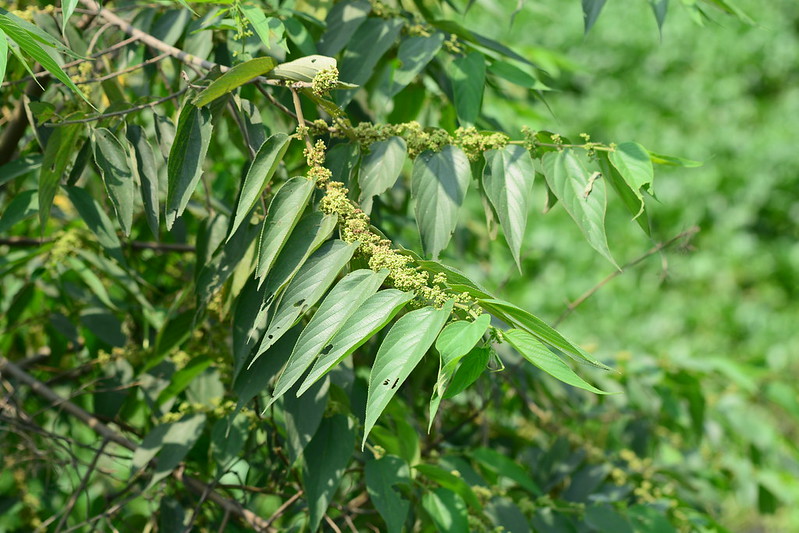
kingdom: Plantae
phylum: Tracheophyta
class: Magnoliopsida
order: Rosales
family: Cannabaceae
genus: Trema
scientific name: Trema orientale
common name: Indian charcoal tree
